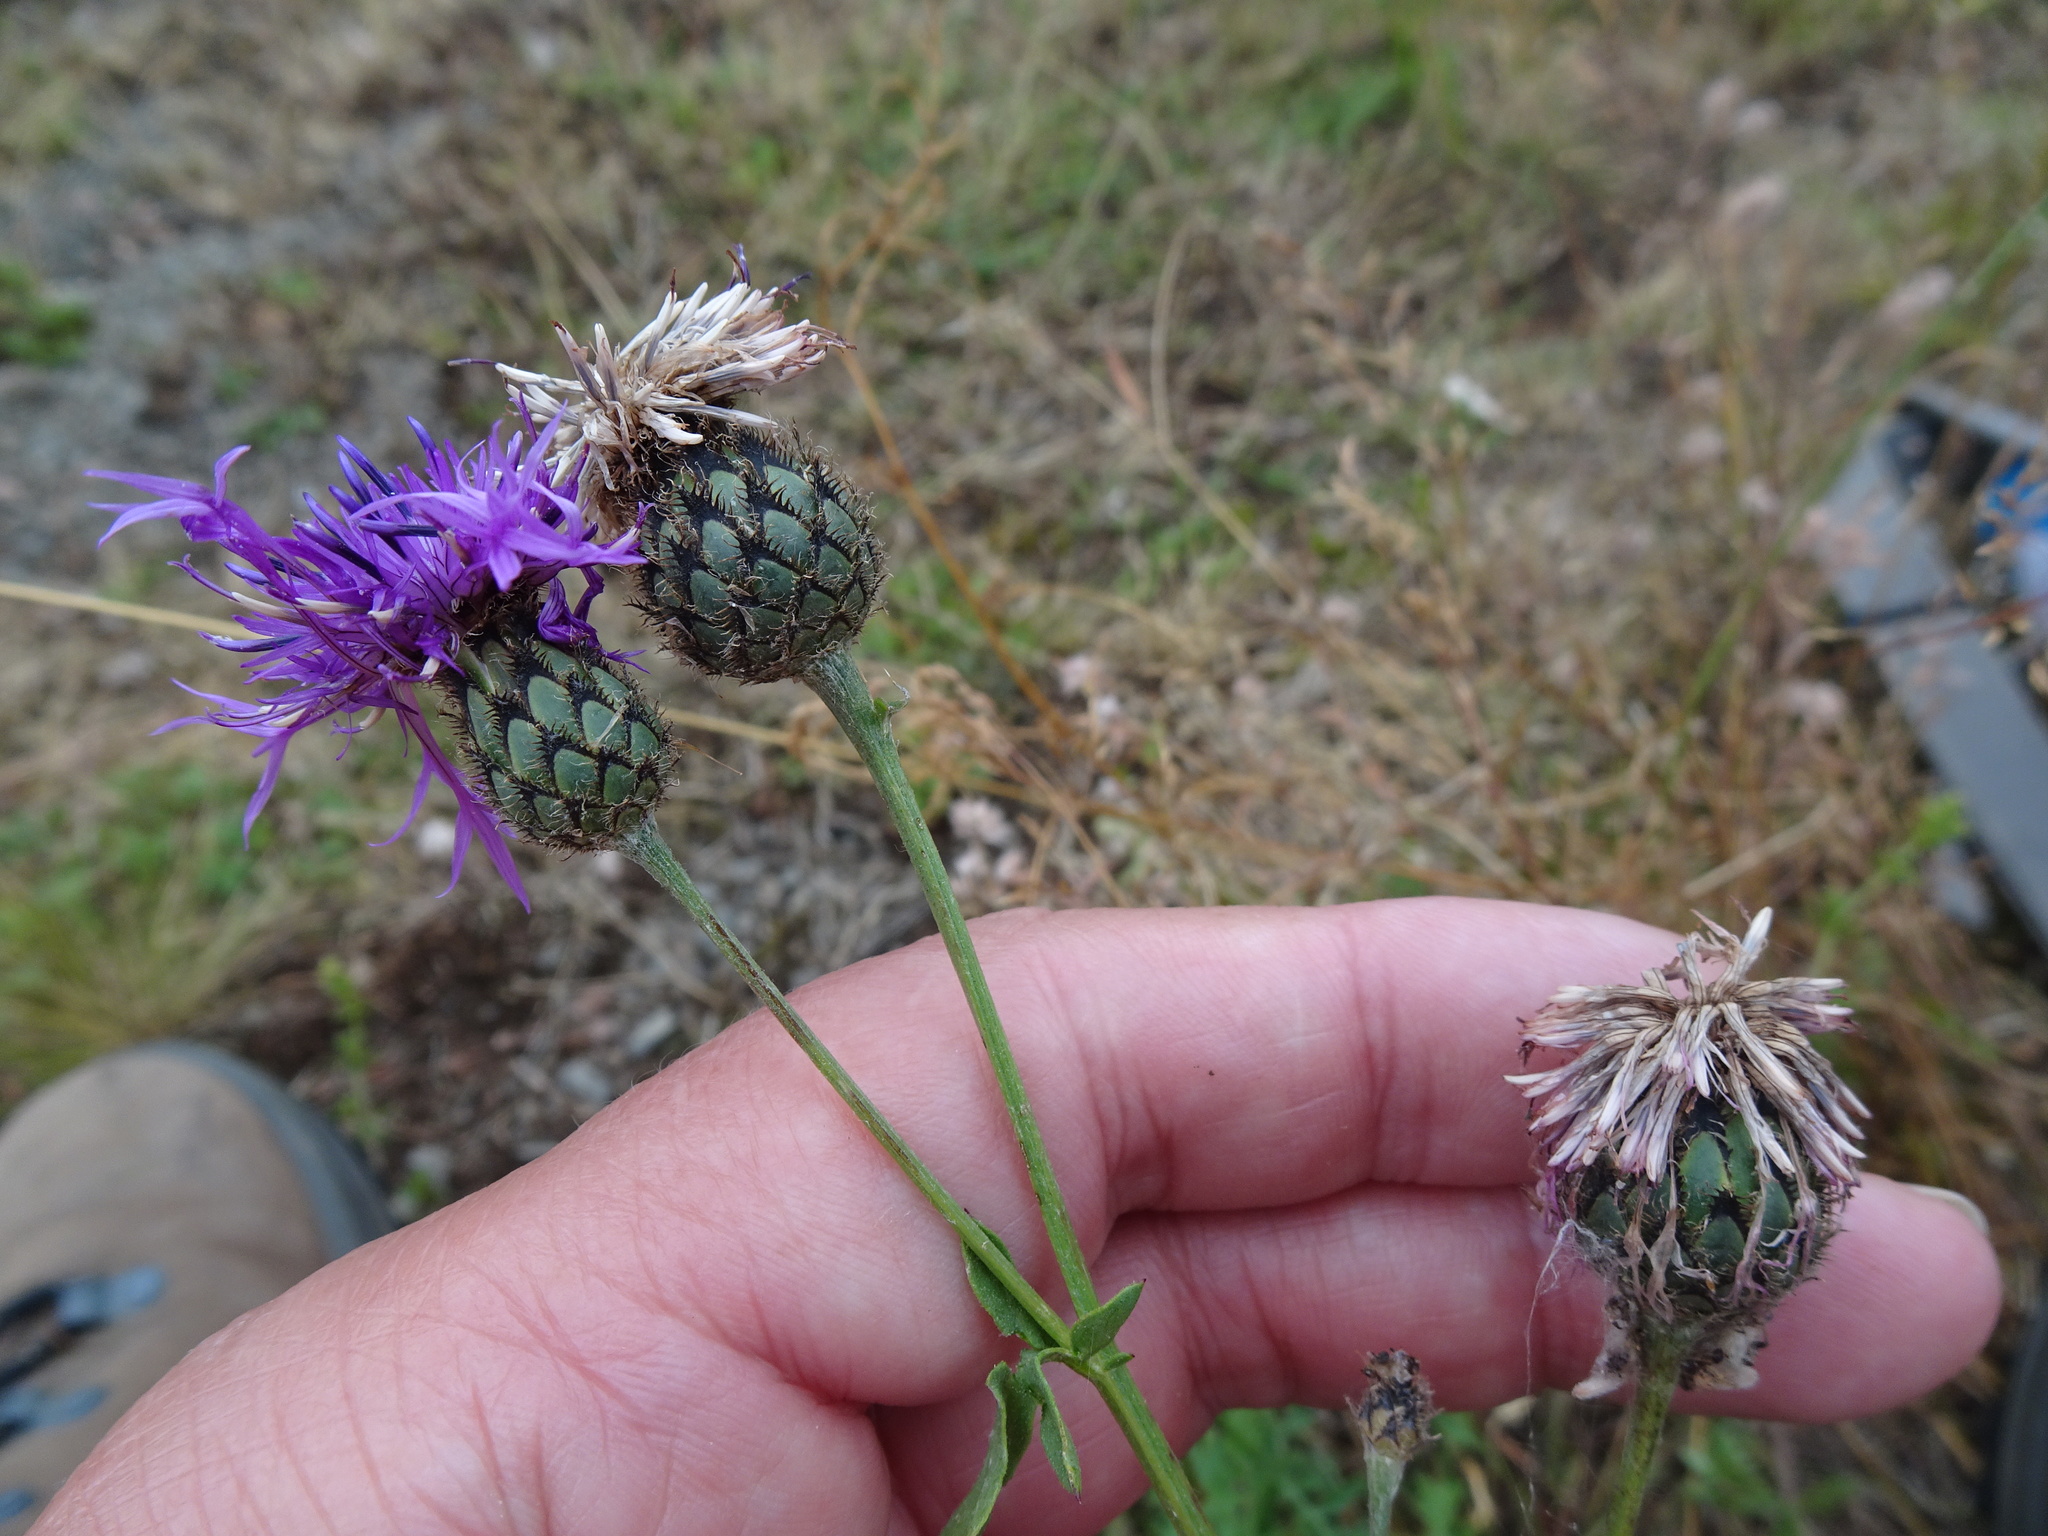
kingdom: Plantae
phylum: Tracheophyta
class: Magnoliopsida
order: Asterales
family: Asteraceae
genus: Centaurea
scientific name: Centaurea scabiosa
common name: Greater knapweed
